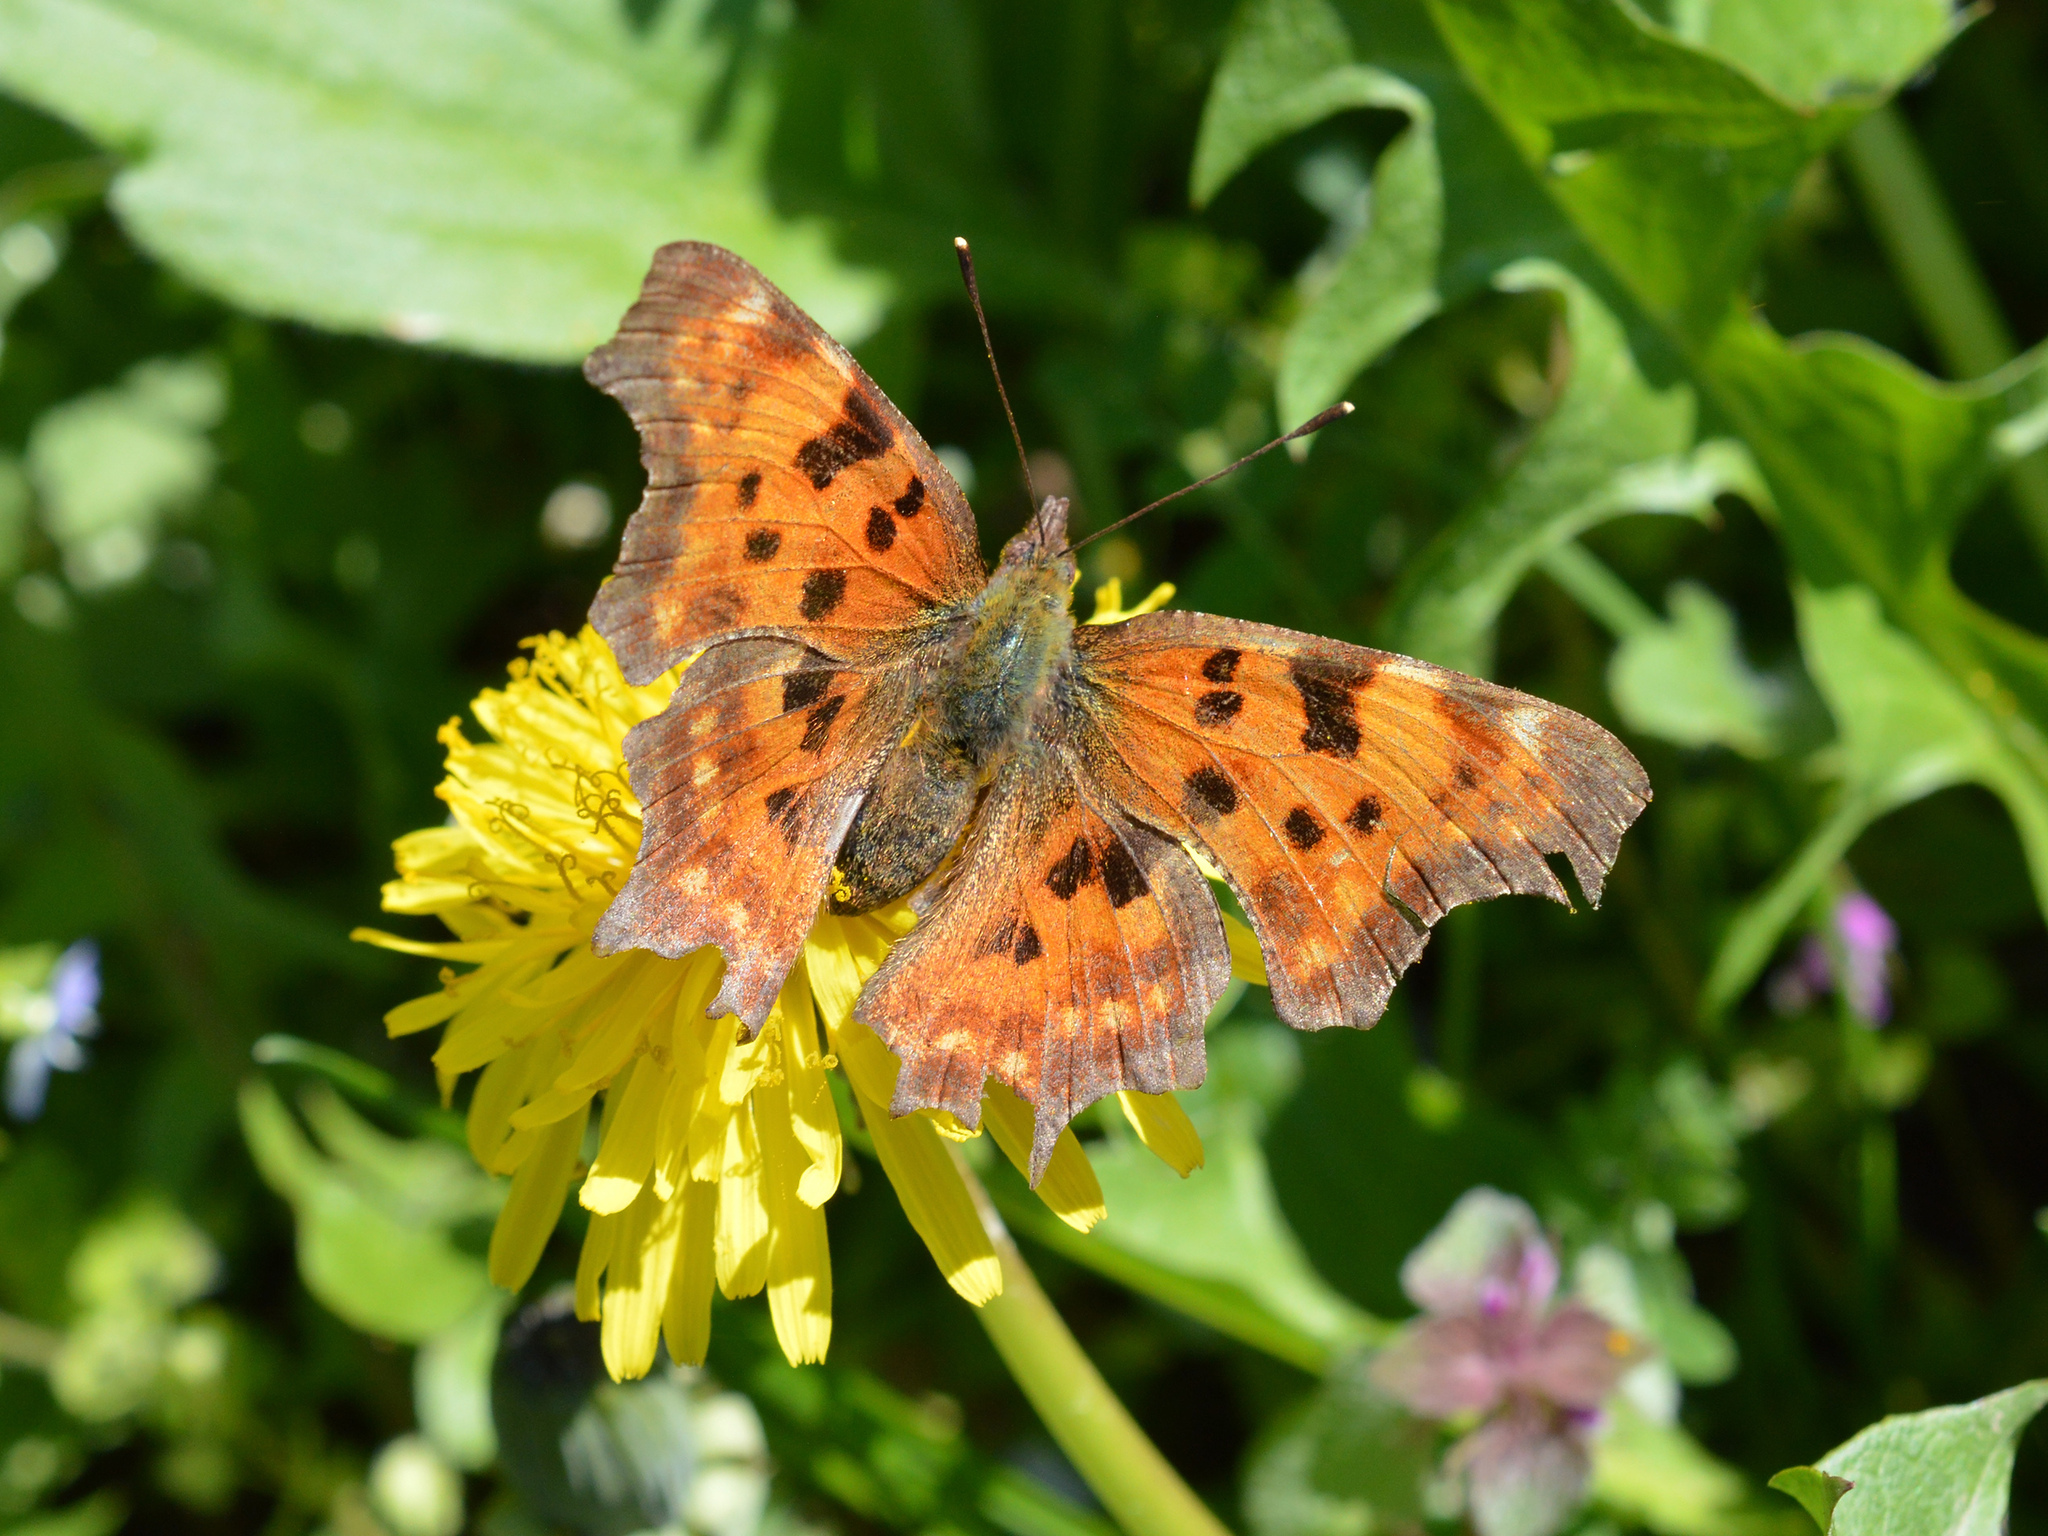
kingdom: Animalia
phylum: Arthropoda
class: Insecta
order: Lepidoptera
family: Nymphalidae
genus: Polygonia
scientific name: Polygonia c-album
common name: Comma
